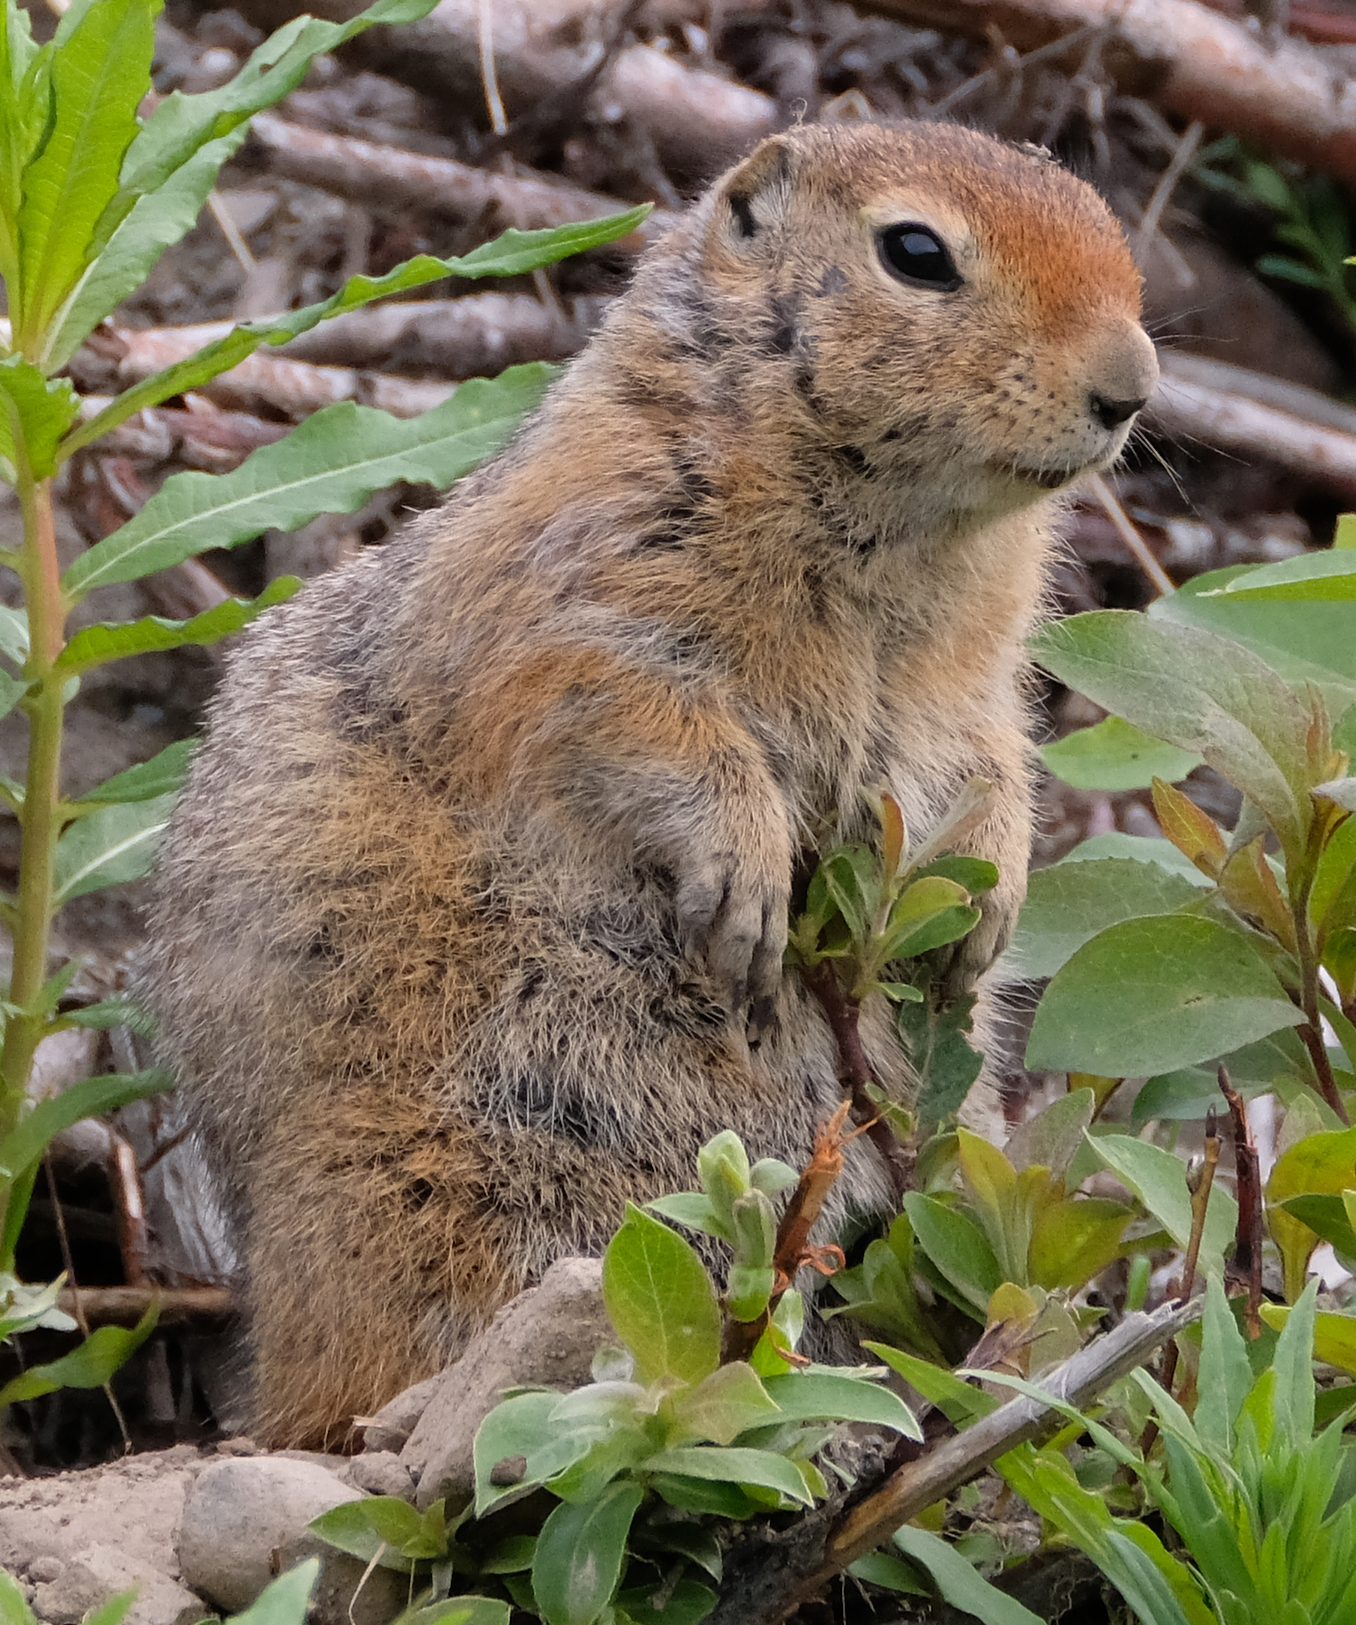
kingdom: Animalia
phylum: Chordata
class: Mammalia
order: Rodentia
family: Sciuridae
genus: Urocitellus
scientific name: Urocitellus parryii
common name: Arctic ground squirrel
